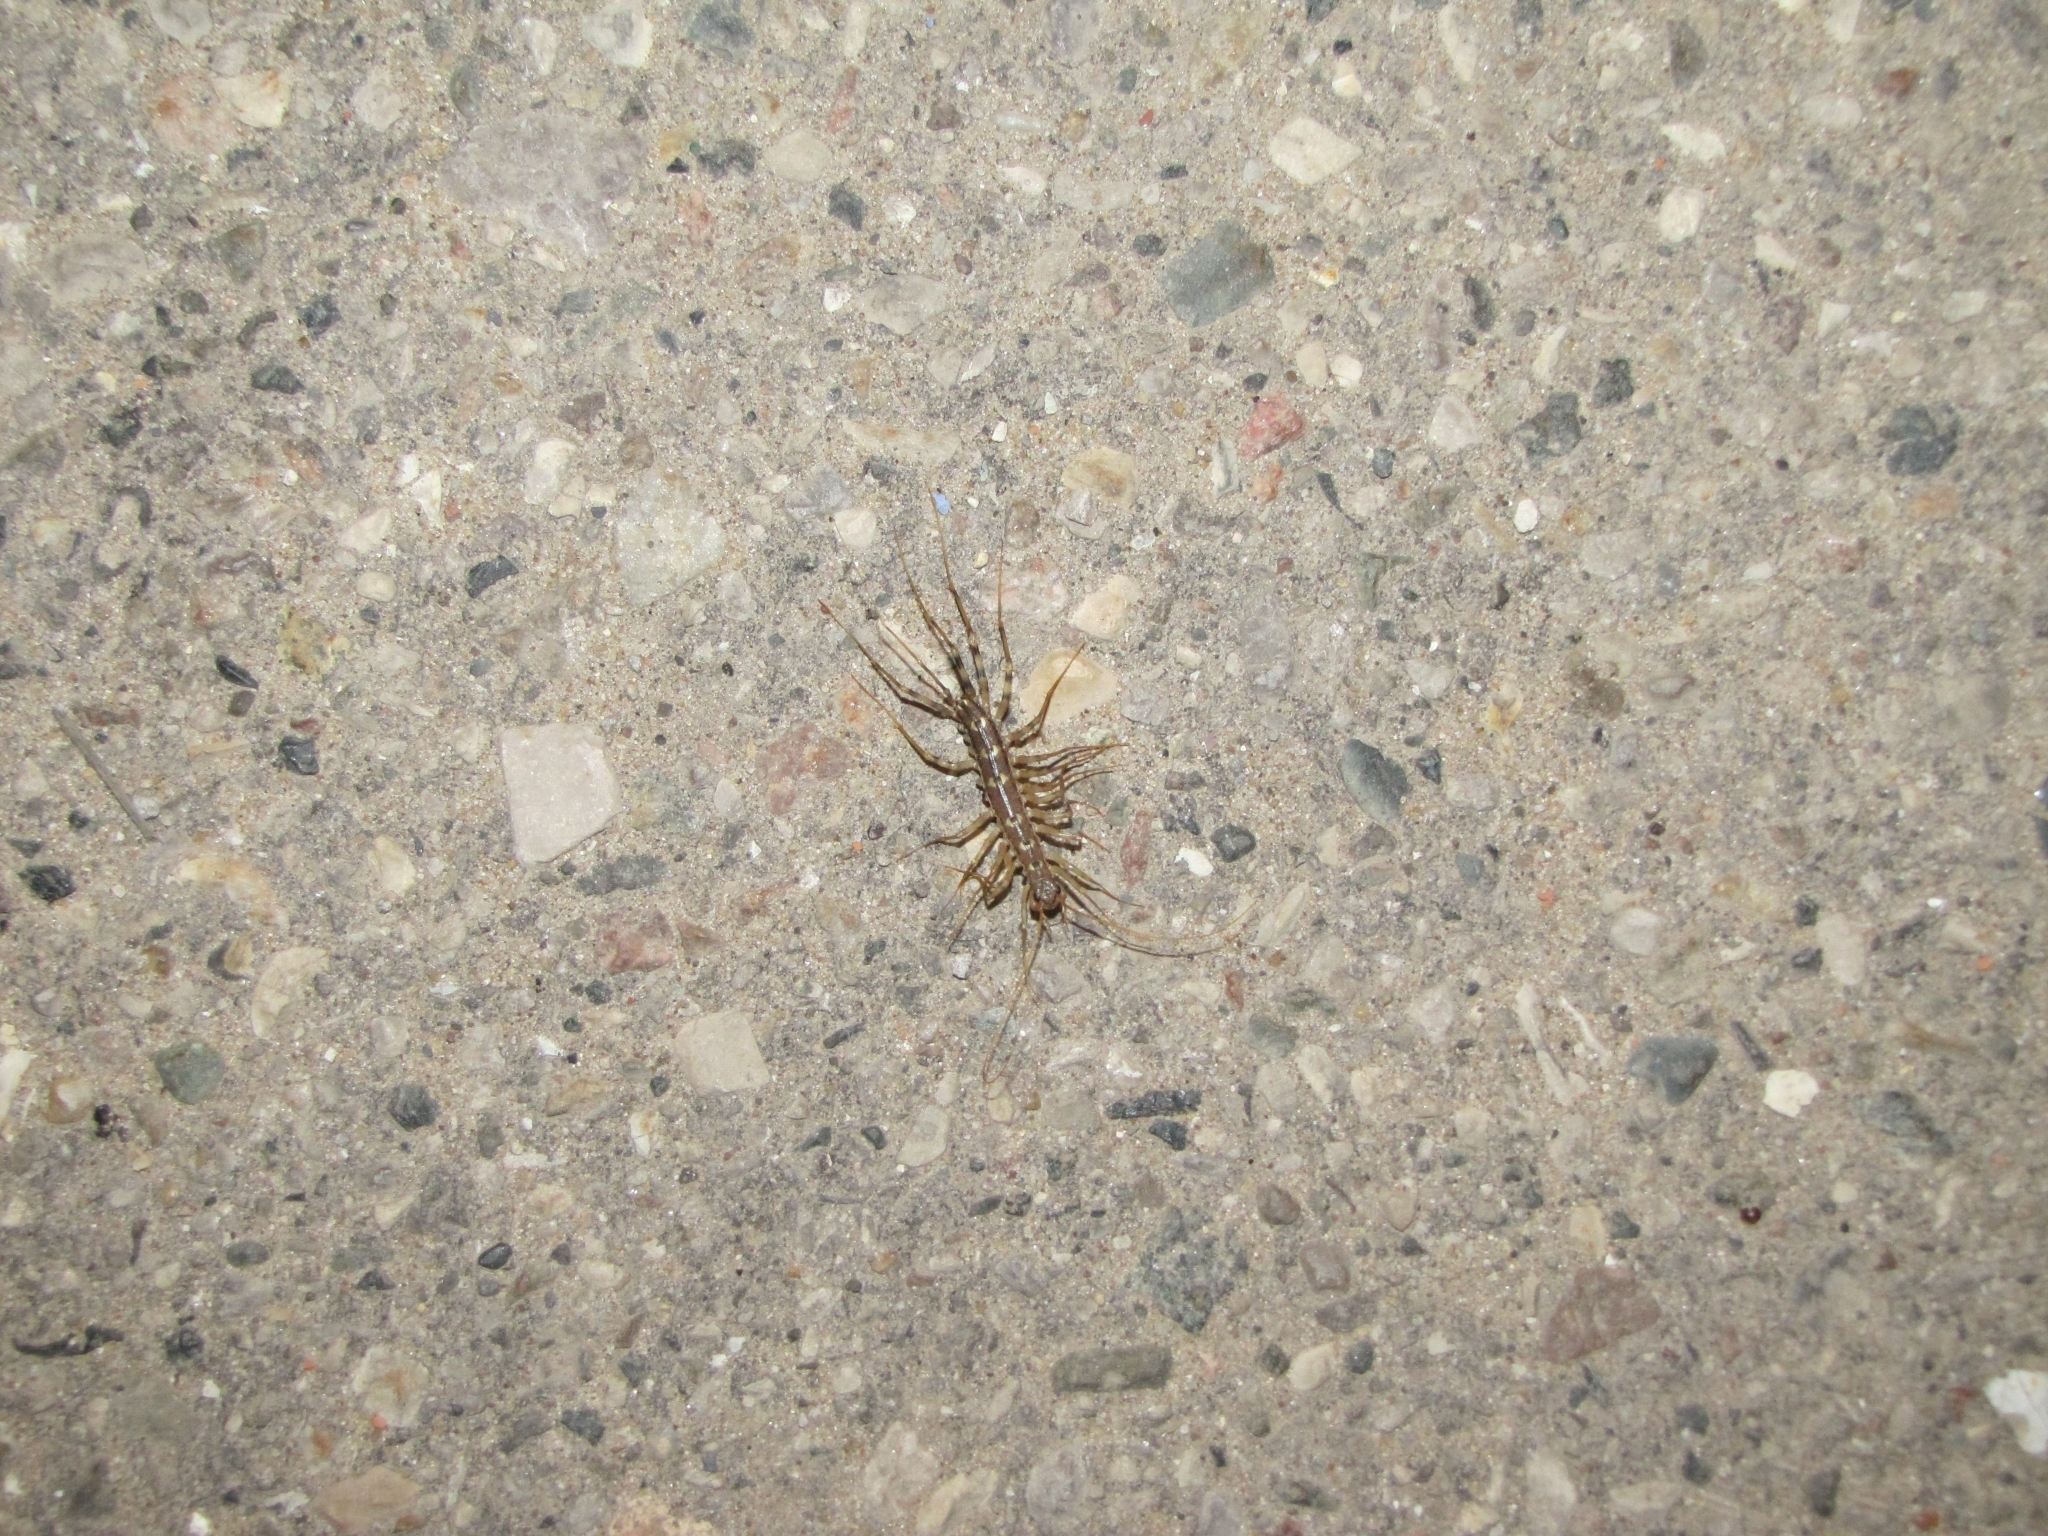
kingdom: Animalia
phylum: Arthropoda
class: Chilopoda
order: Scutigeromorpha
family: Scutigeridae
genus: Scutigera
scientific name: Scutigera coleoptrata
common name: House centipede
